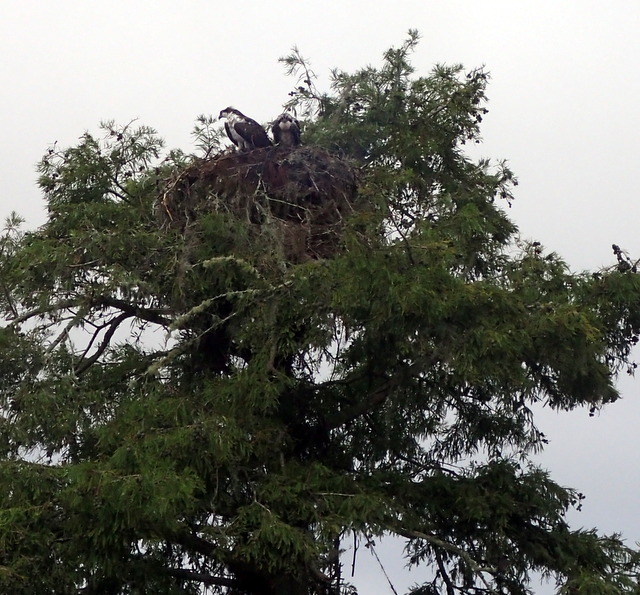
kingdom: Animalia
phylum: Chordata
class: Aves
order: Accipitriformes
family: Pandionidae
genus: Pandion
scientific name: Pandion haliaetus
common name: Osprey
